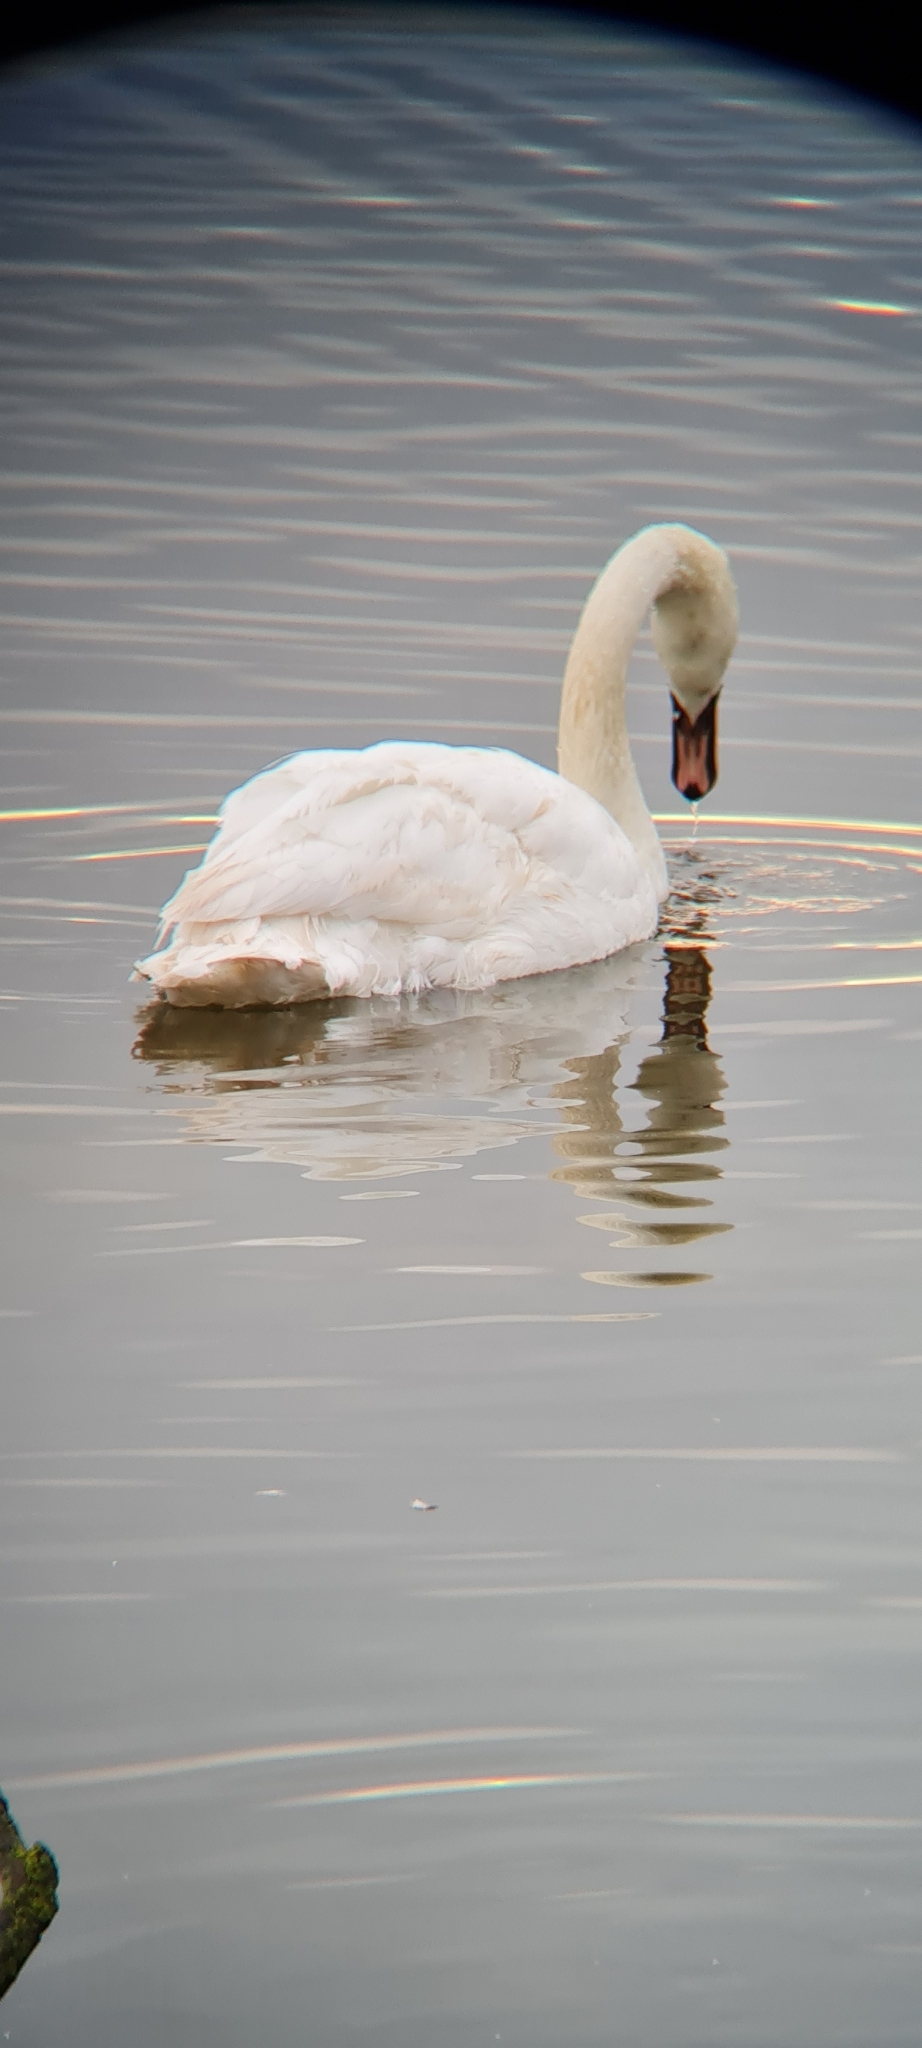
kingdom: Animalia
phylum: Chordata
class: Aves
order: Anseriformes
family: Anatidae
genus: Cygnus
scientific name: Cygnus olor
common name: Mute swan
